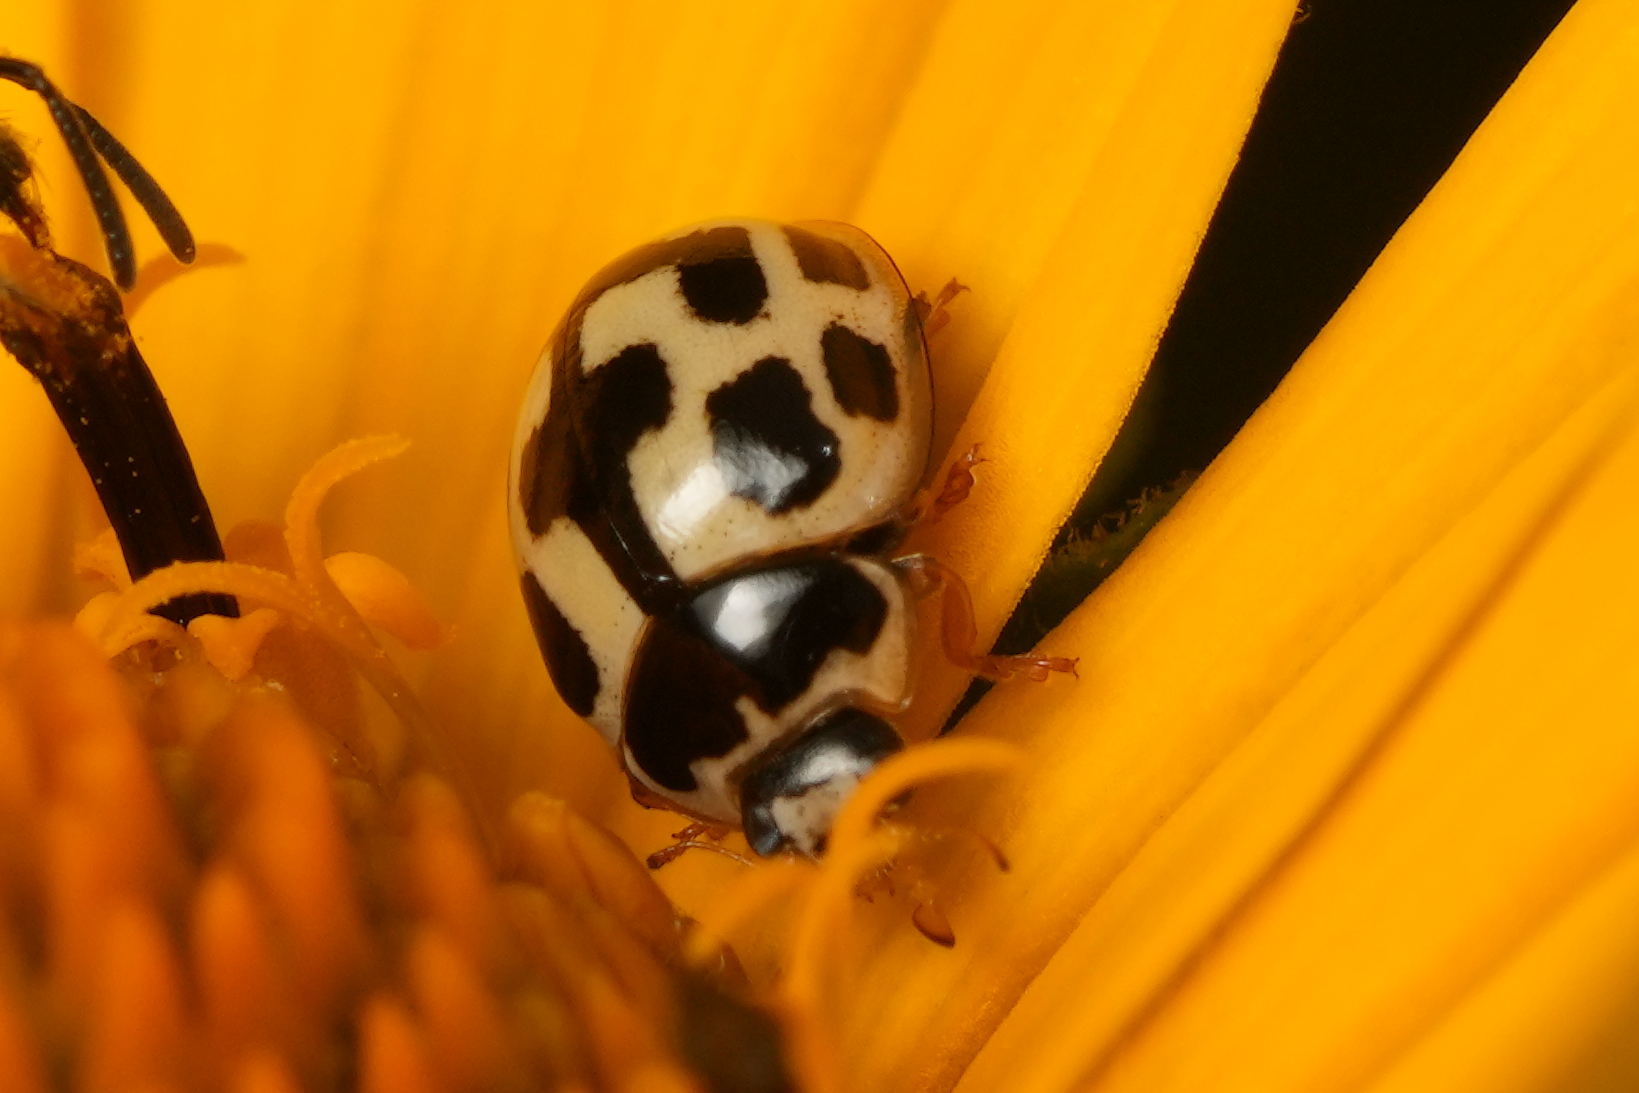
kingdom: Animalia
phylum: Arthropoda
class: Insecta
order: Coleoptera
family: Coccinellidae
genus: Propylaea
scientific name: Propylaea quatuordecimpunctata
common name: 14-spotted ladybird beetle
